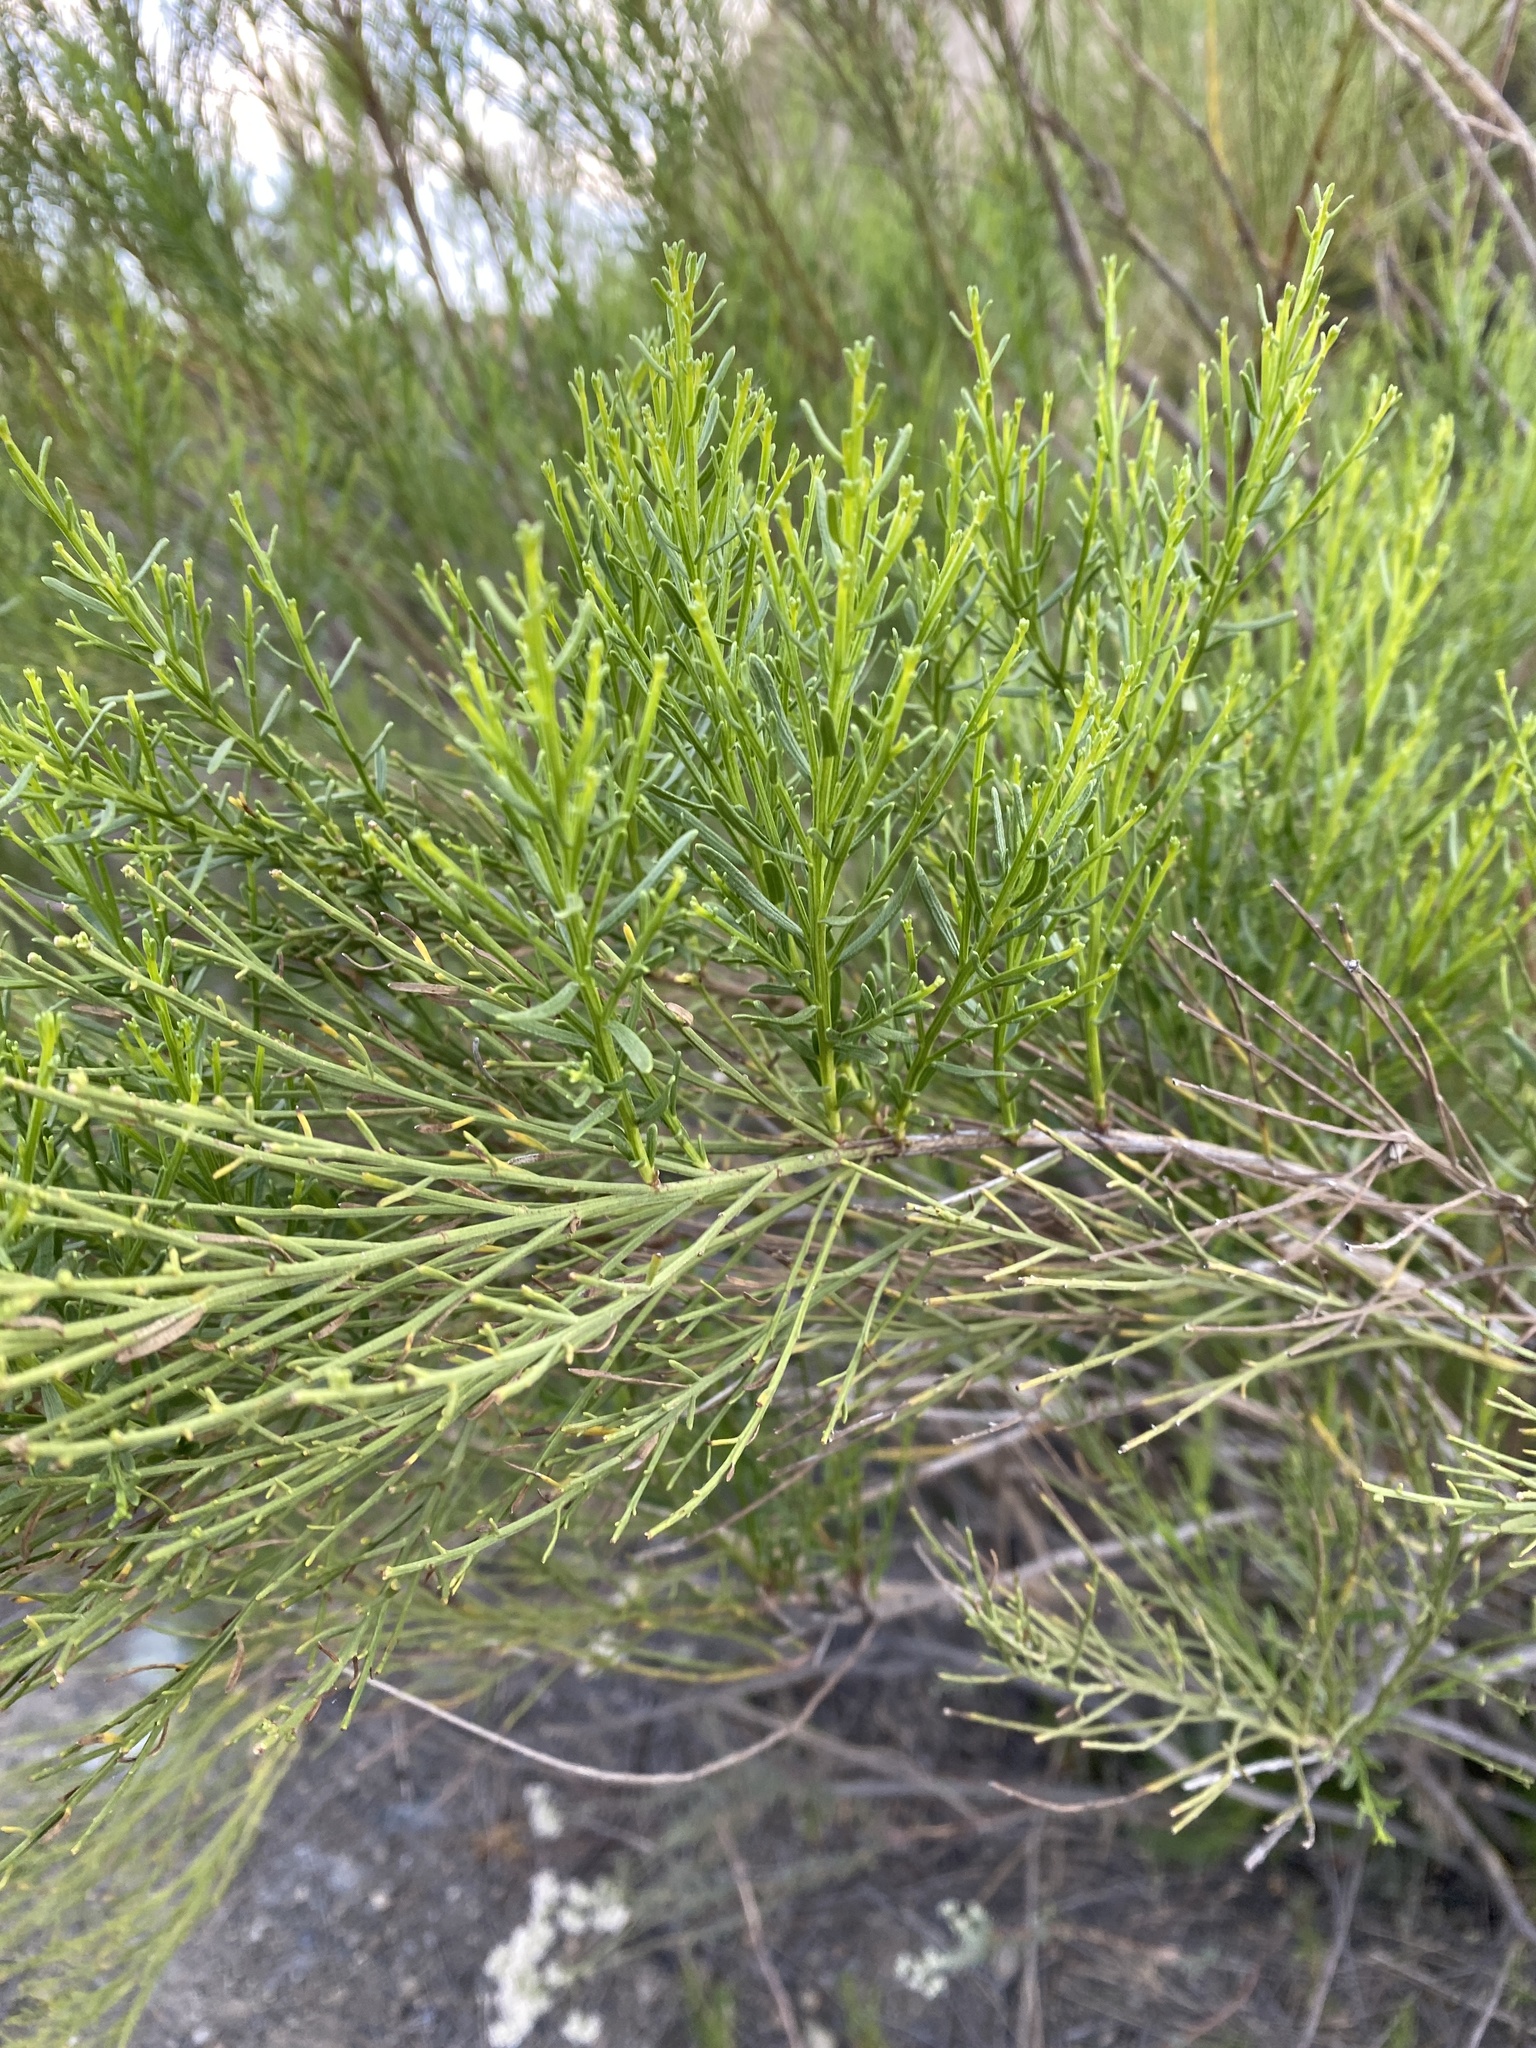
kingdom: Plantae
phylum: Tracheophyta
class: Magnoliopsida
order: Asterales
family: Asteraceae
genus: Baccharis
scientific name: Baccharis sarothroides
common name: Desert-broom
